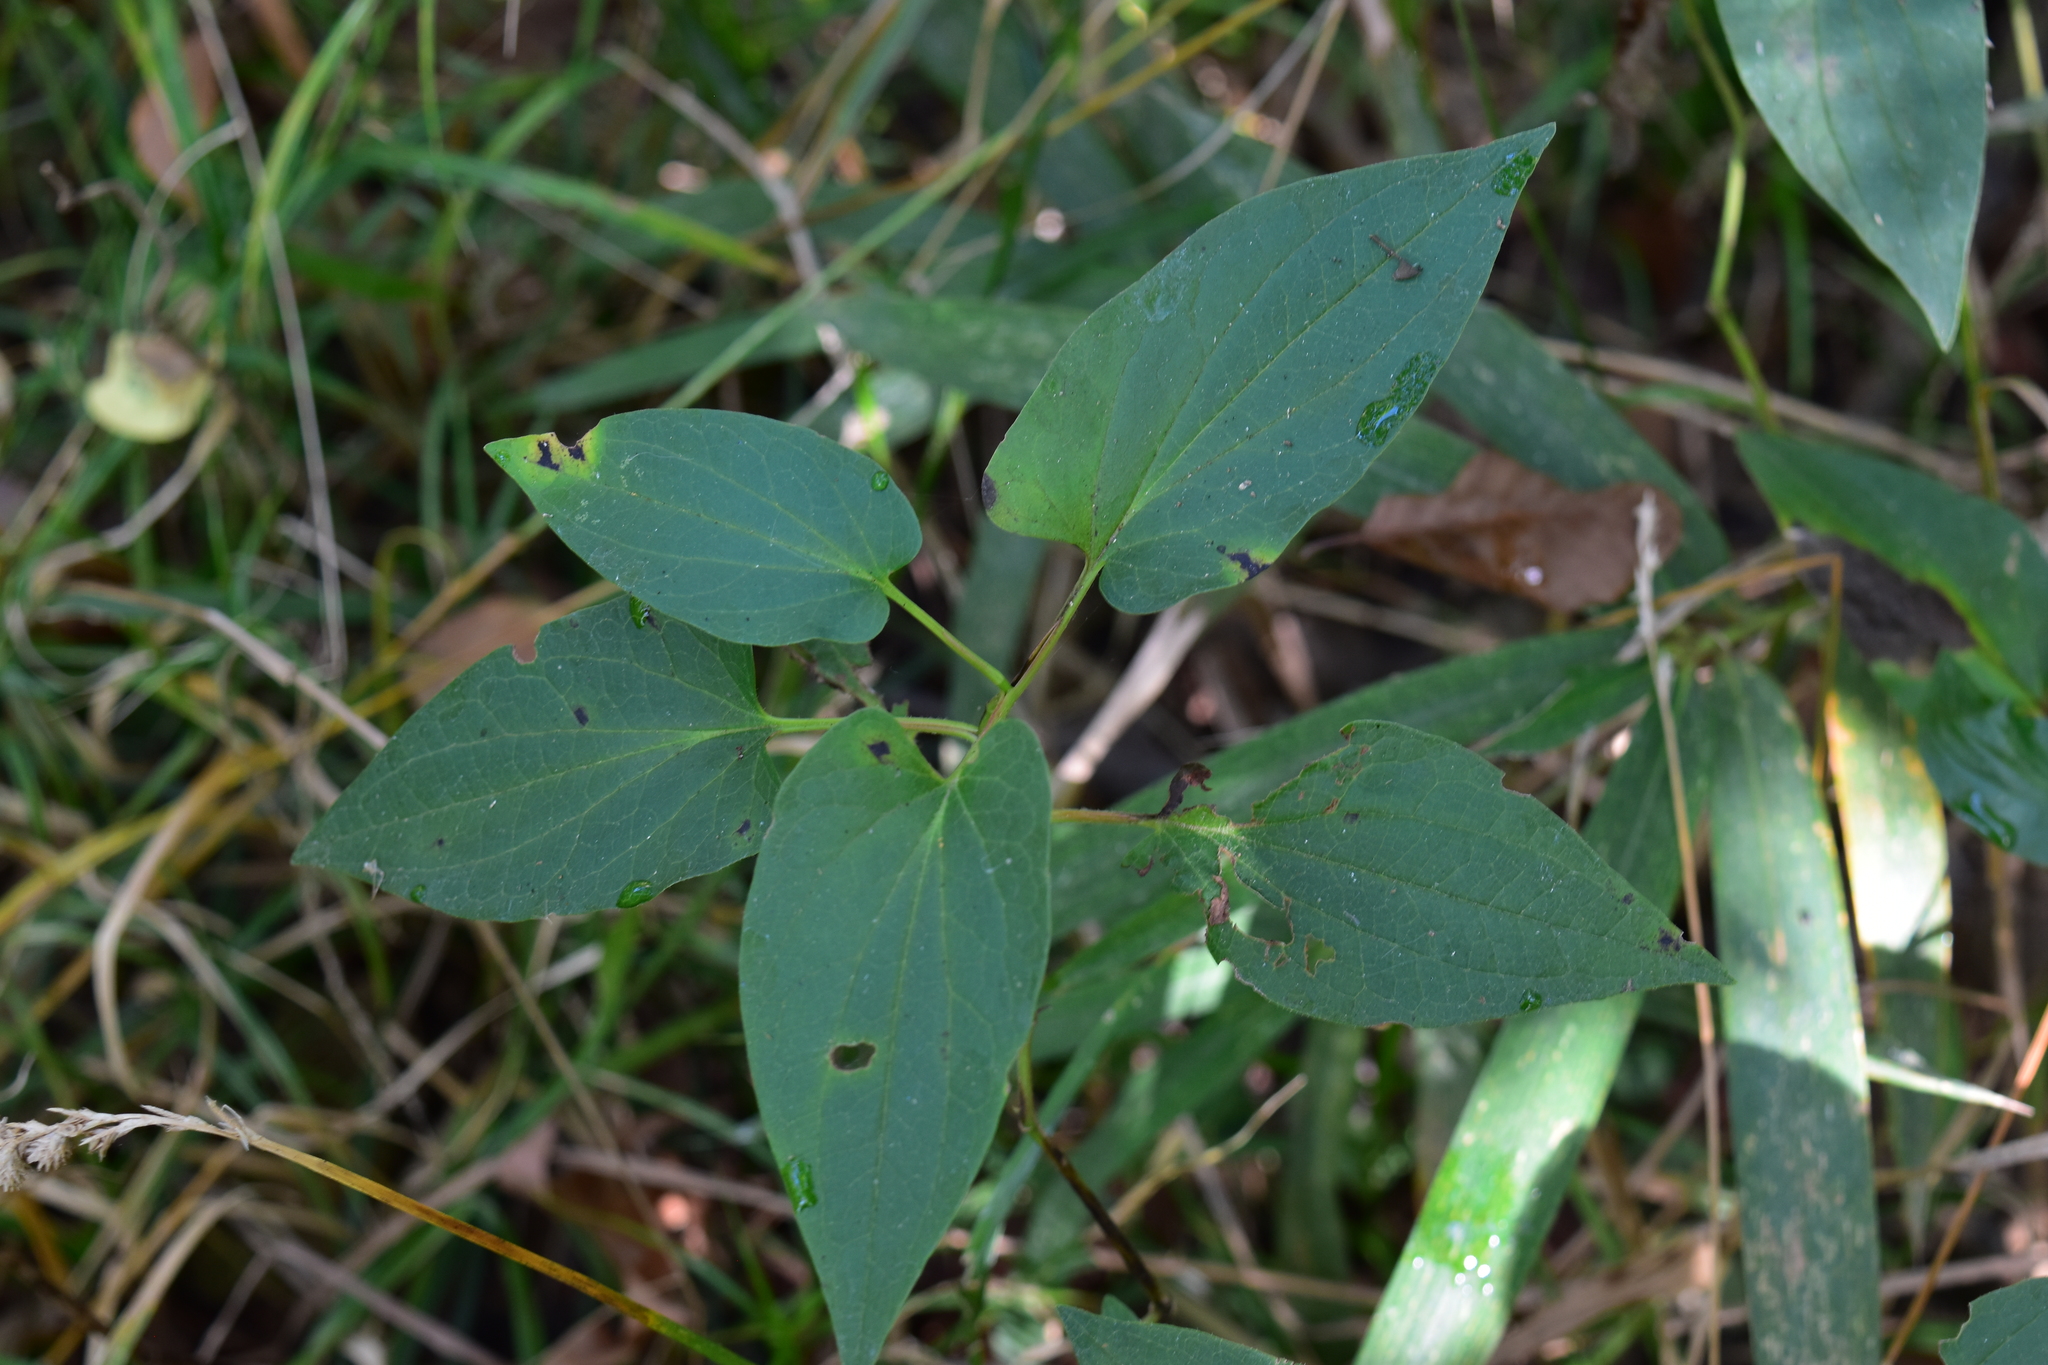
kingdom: Plantae
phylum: Tracheophyta
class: Magnoliopsida
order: Piperales
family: Saururaceae
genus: Saururus
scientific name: Saururus cernuus
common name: Lizard's-tail
